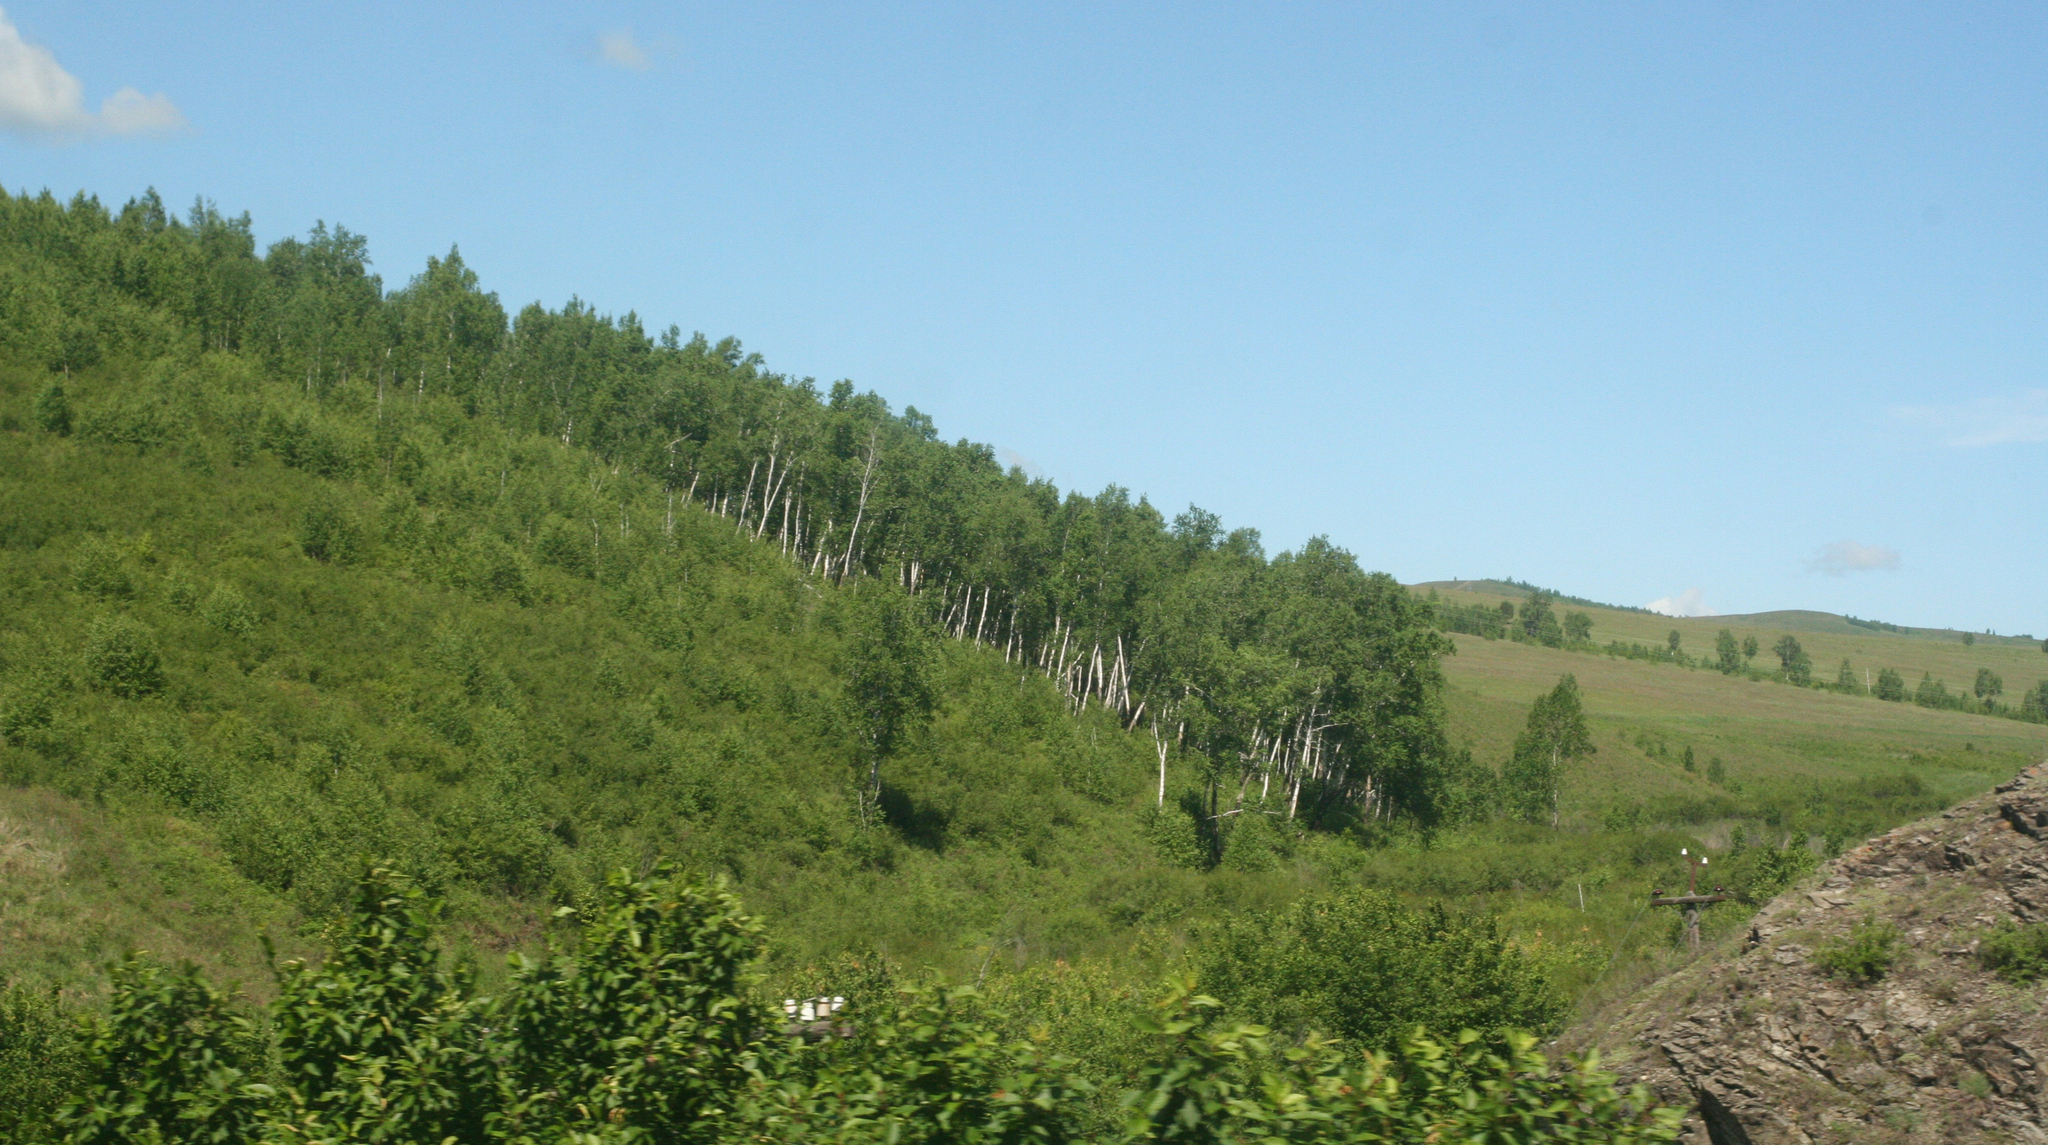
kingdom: Plantae
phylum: Tracheophyta
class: Magnoliopsida
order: Fagales
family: Betulaceae
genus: Betula
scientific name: Betula pendula
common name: Silver birch
